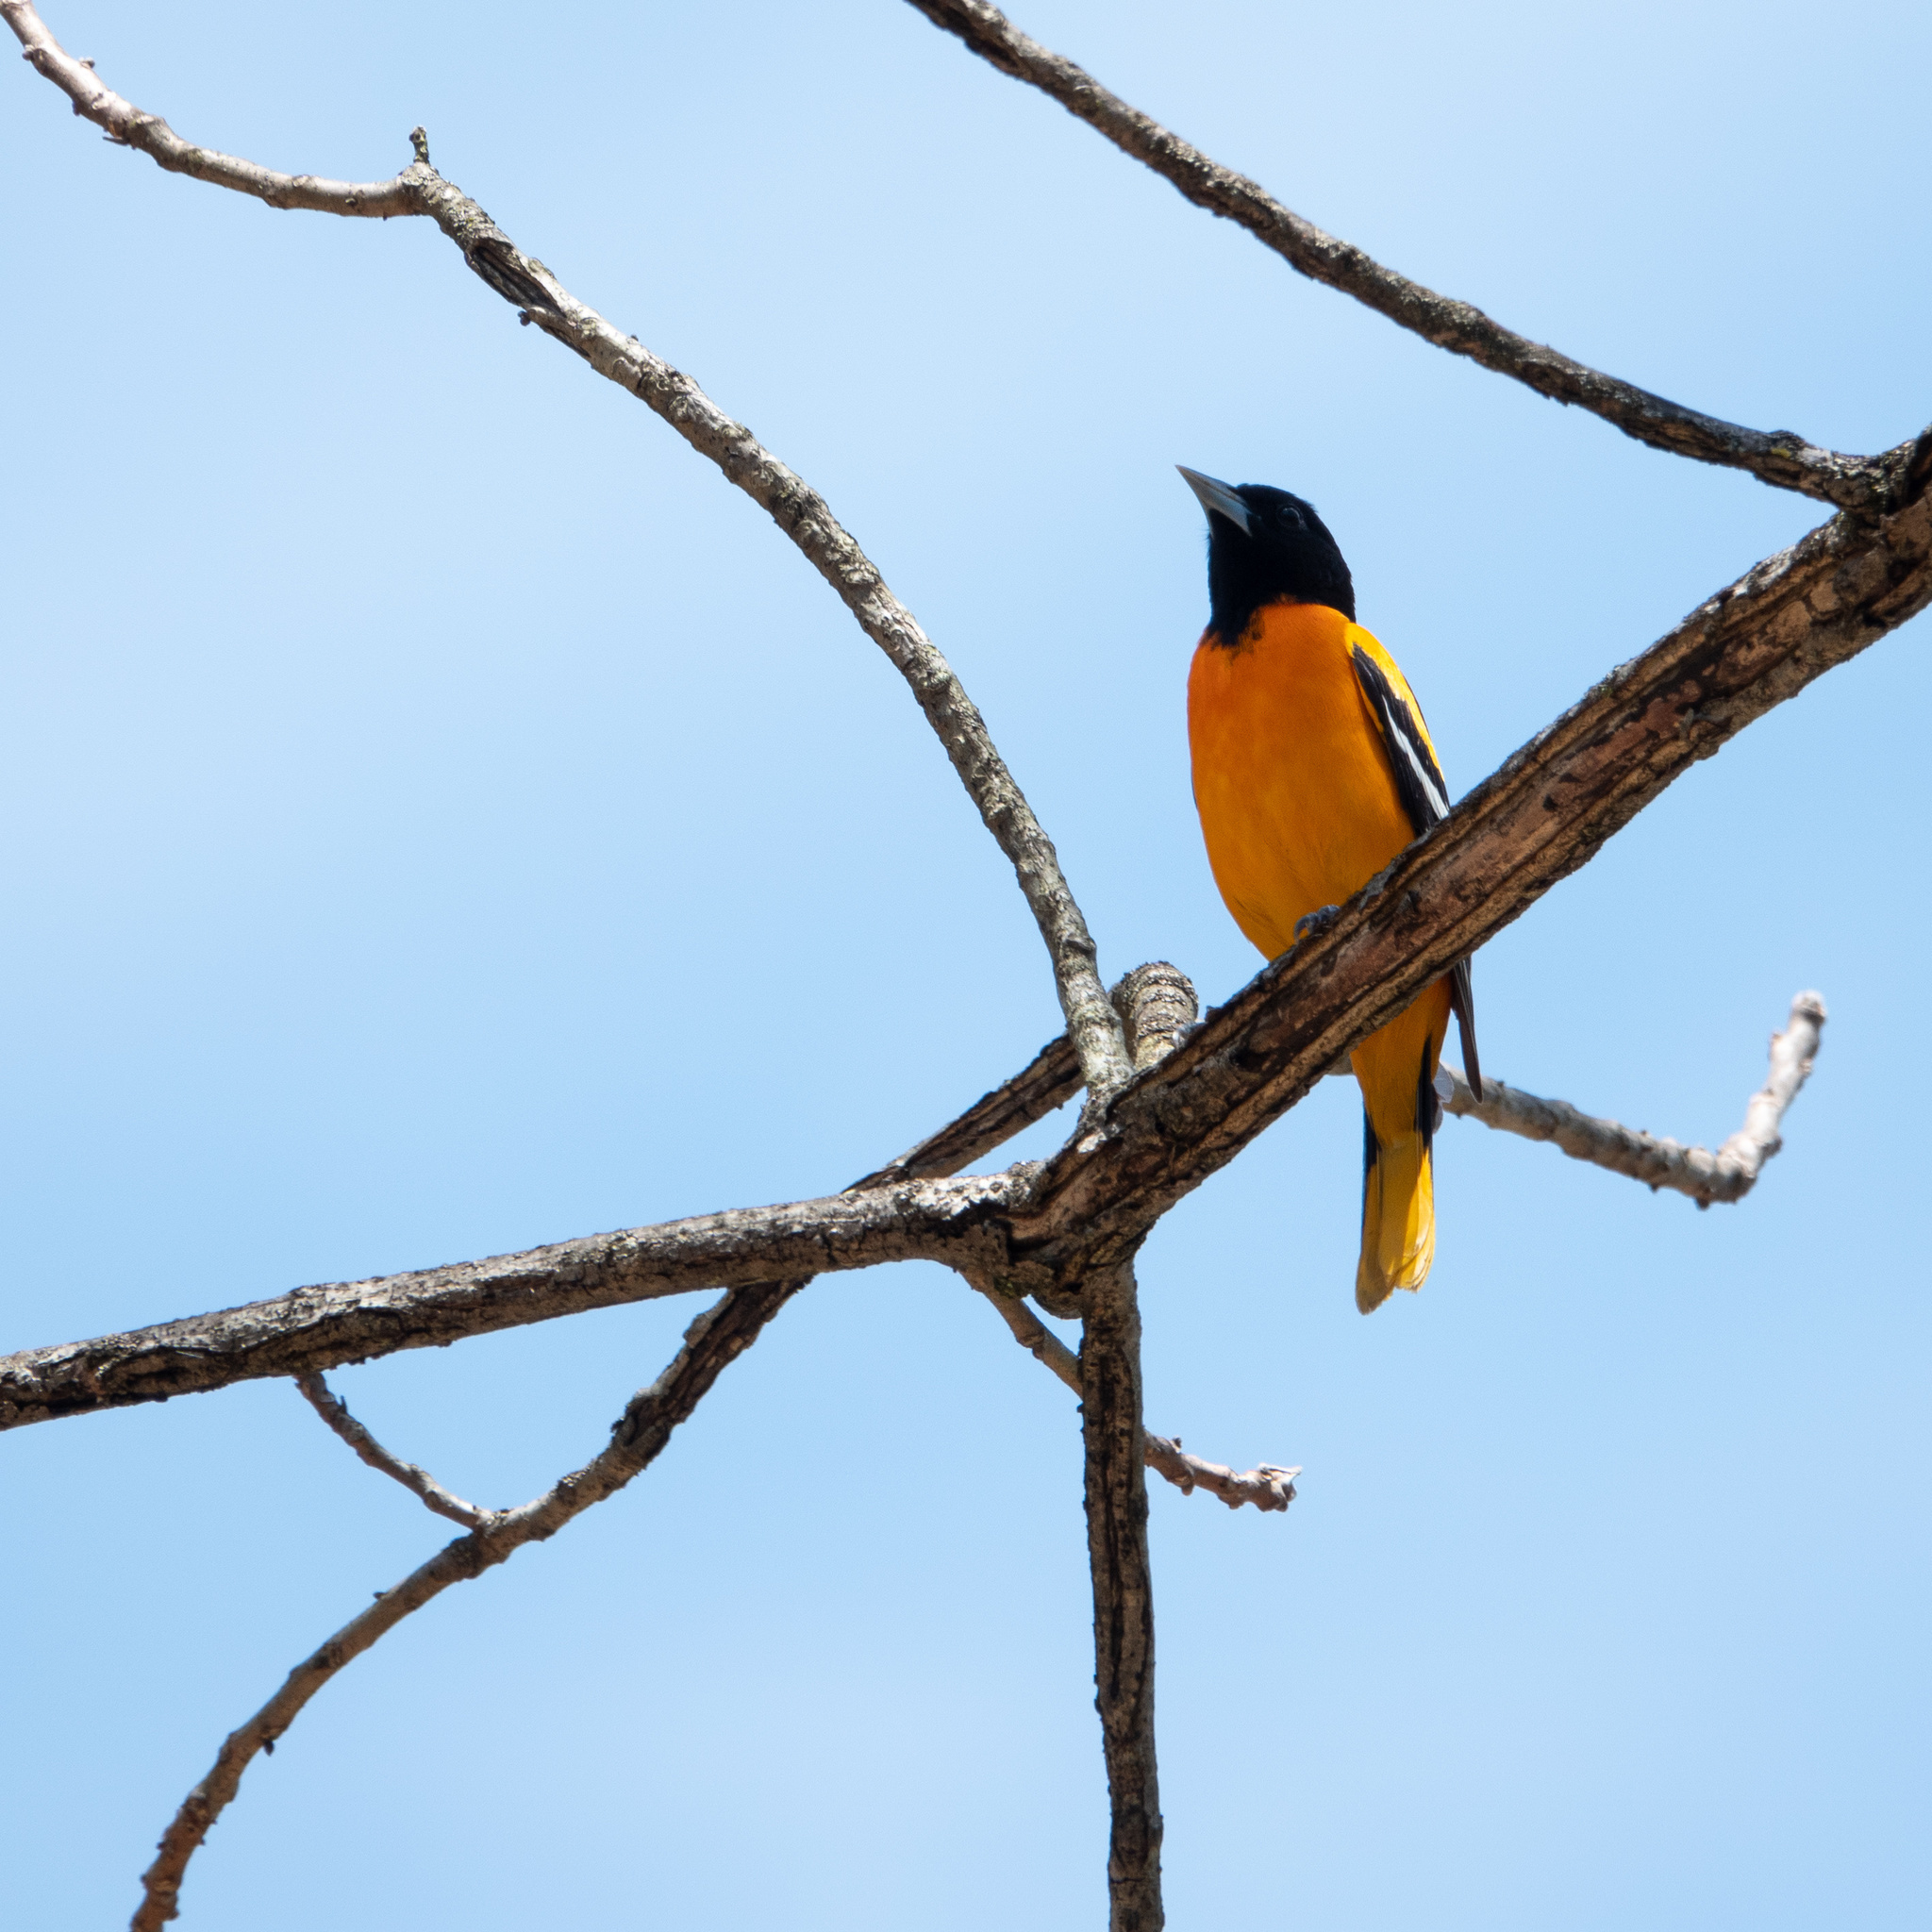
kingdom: Animalia
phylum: Chordata
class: Aves
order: Passeriformes
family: Icteridae
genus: Icterus
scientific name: Icterus galbula
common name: Baltimore oriole
